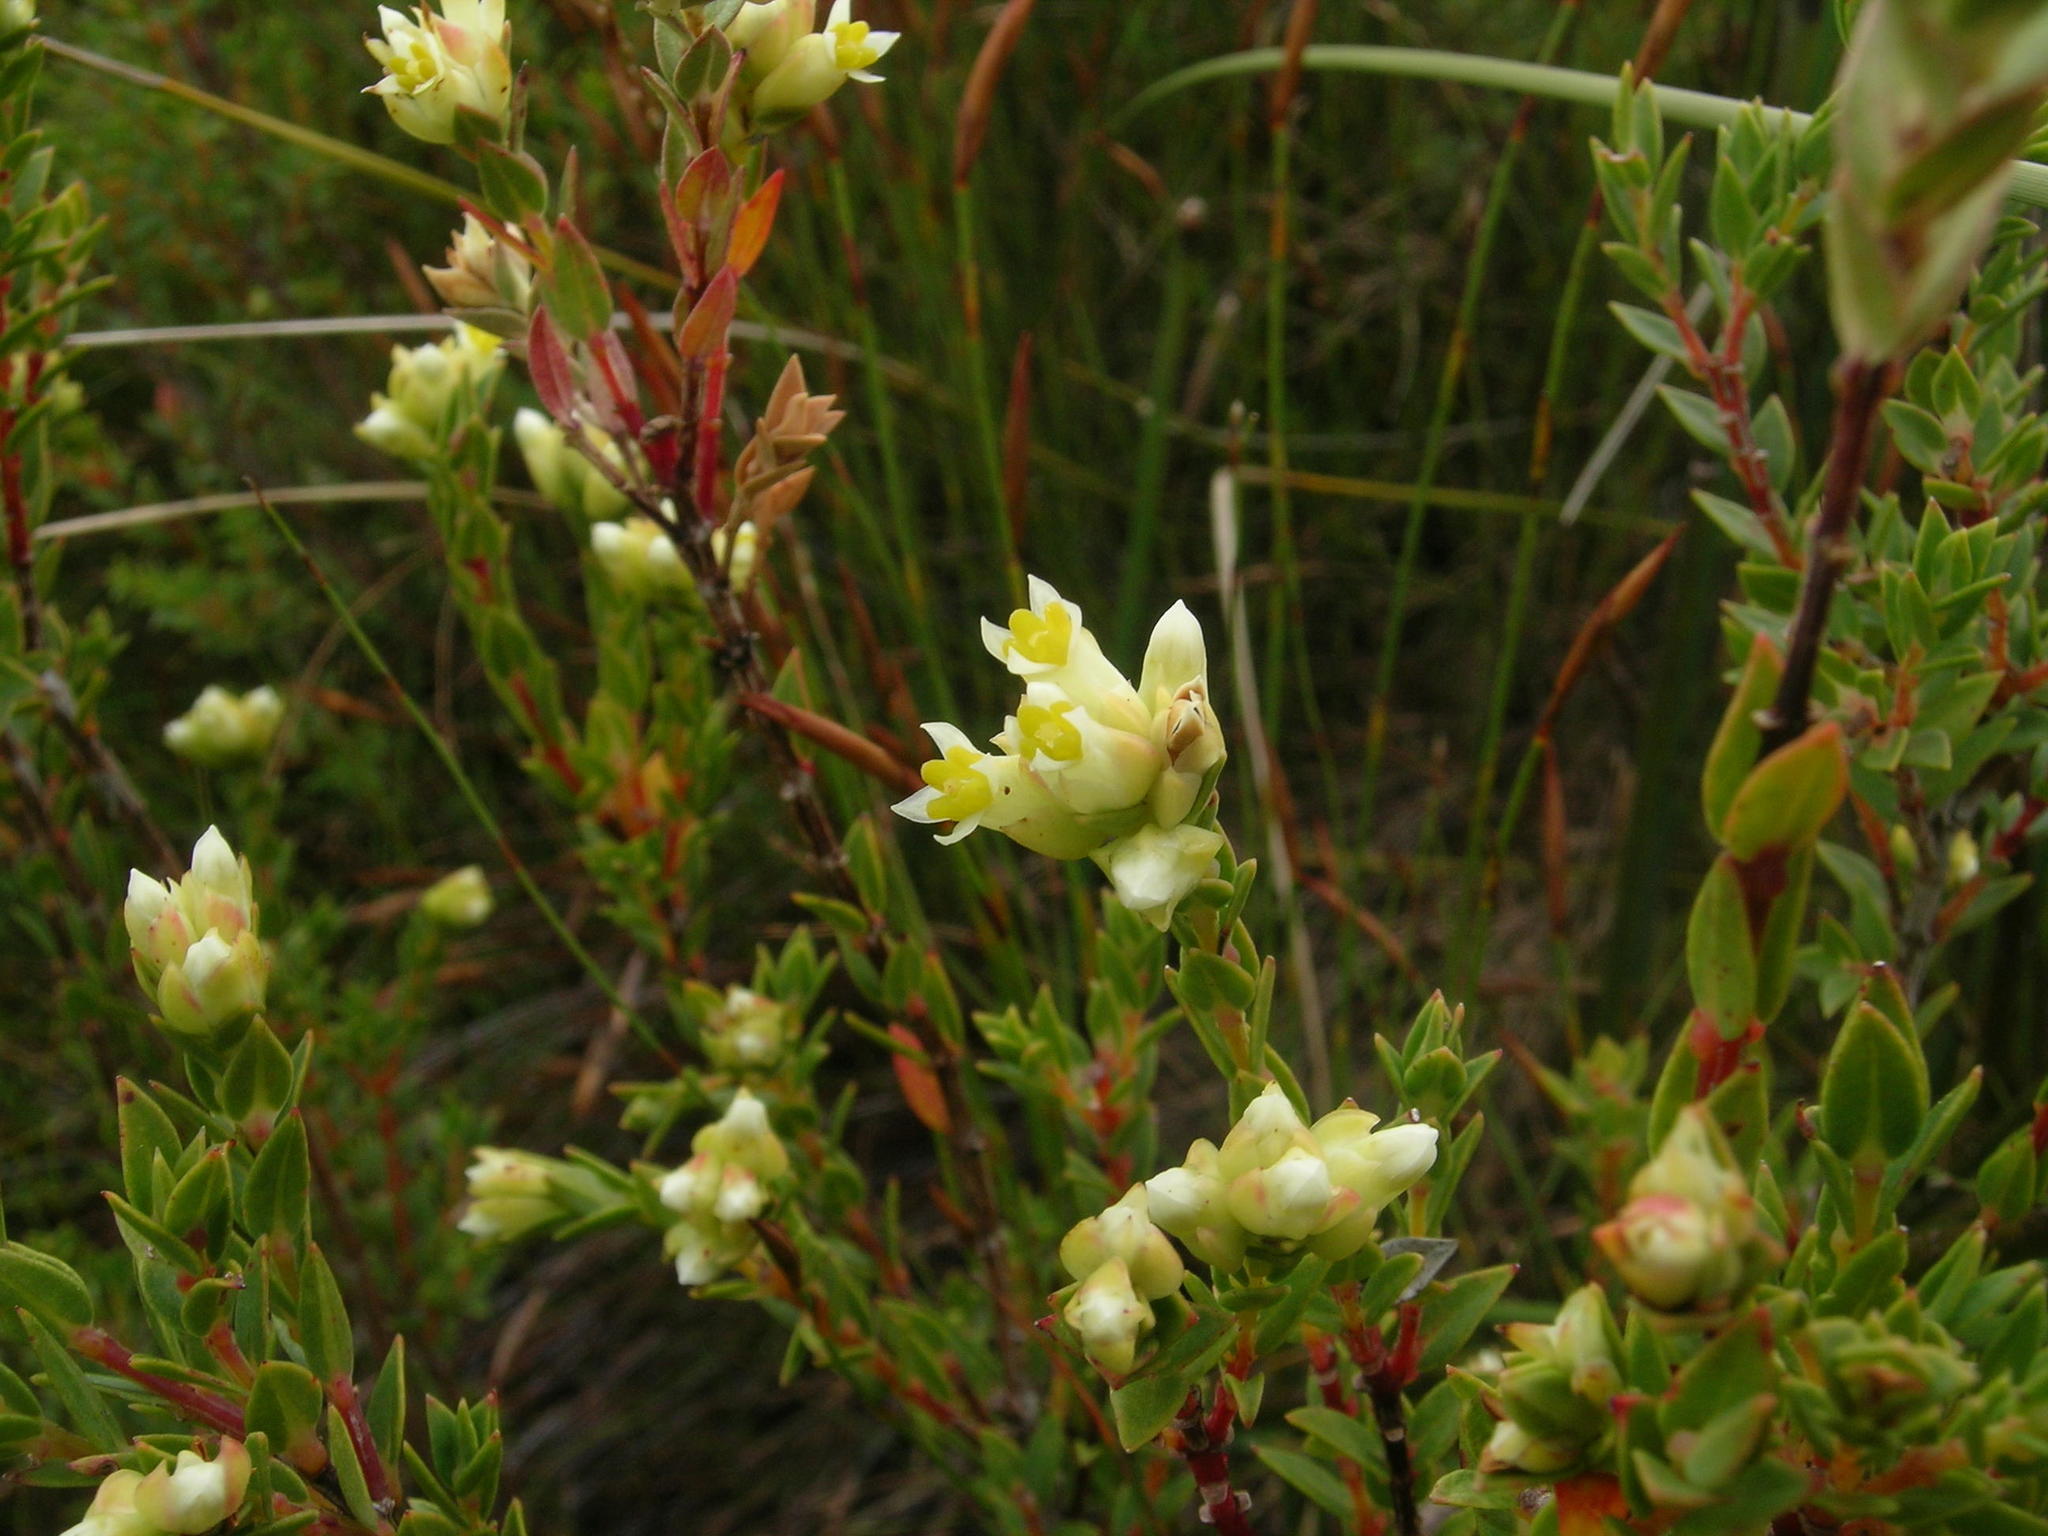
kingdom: Plantae
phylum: Tracheophyta
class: Magnoliopsida
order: Myrtales
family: Penaeaceae
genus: Stylapterus
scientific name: Stylapterus dubius
